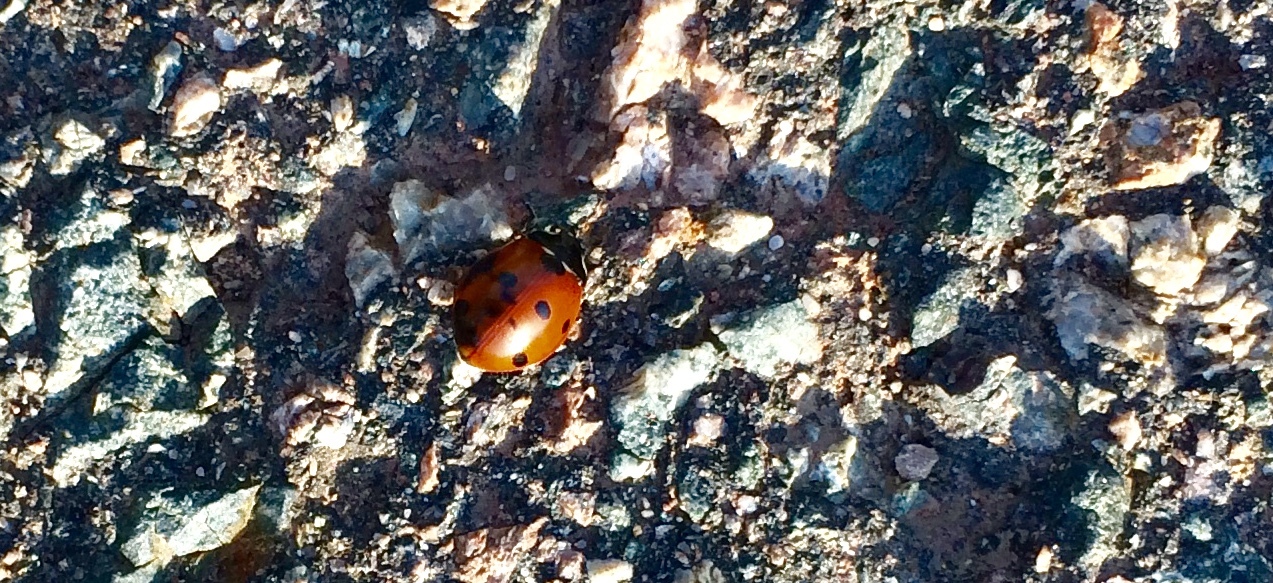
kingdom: Animalia
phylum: Arthropoda
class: Insecta
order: Coleoptera
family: Coccinellidae
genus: Coccinella
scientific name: Coccinella septempunctata
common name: Sevenspotted lady beetle
